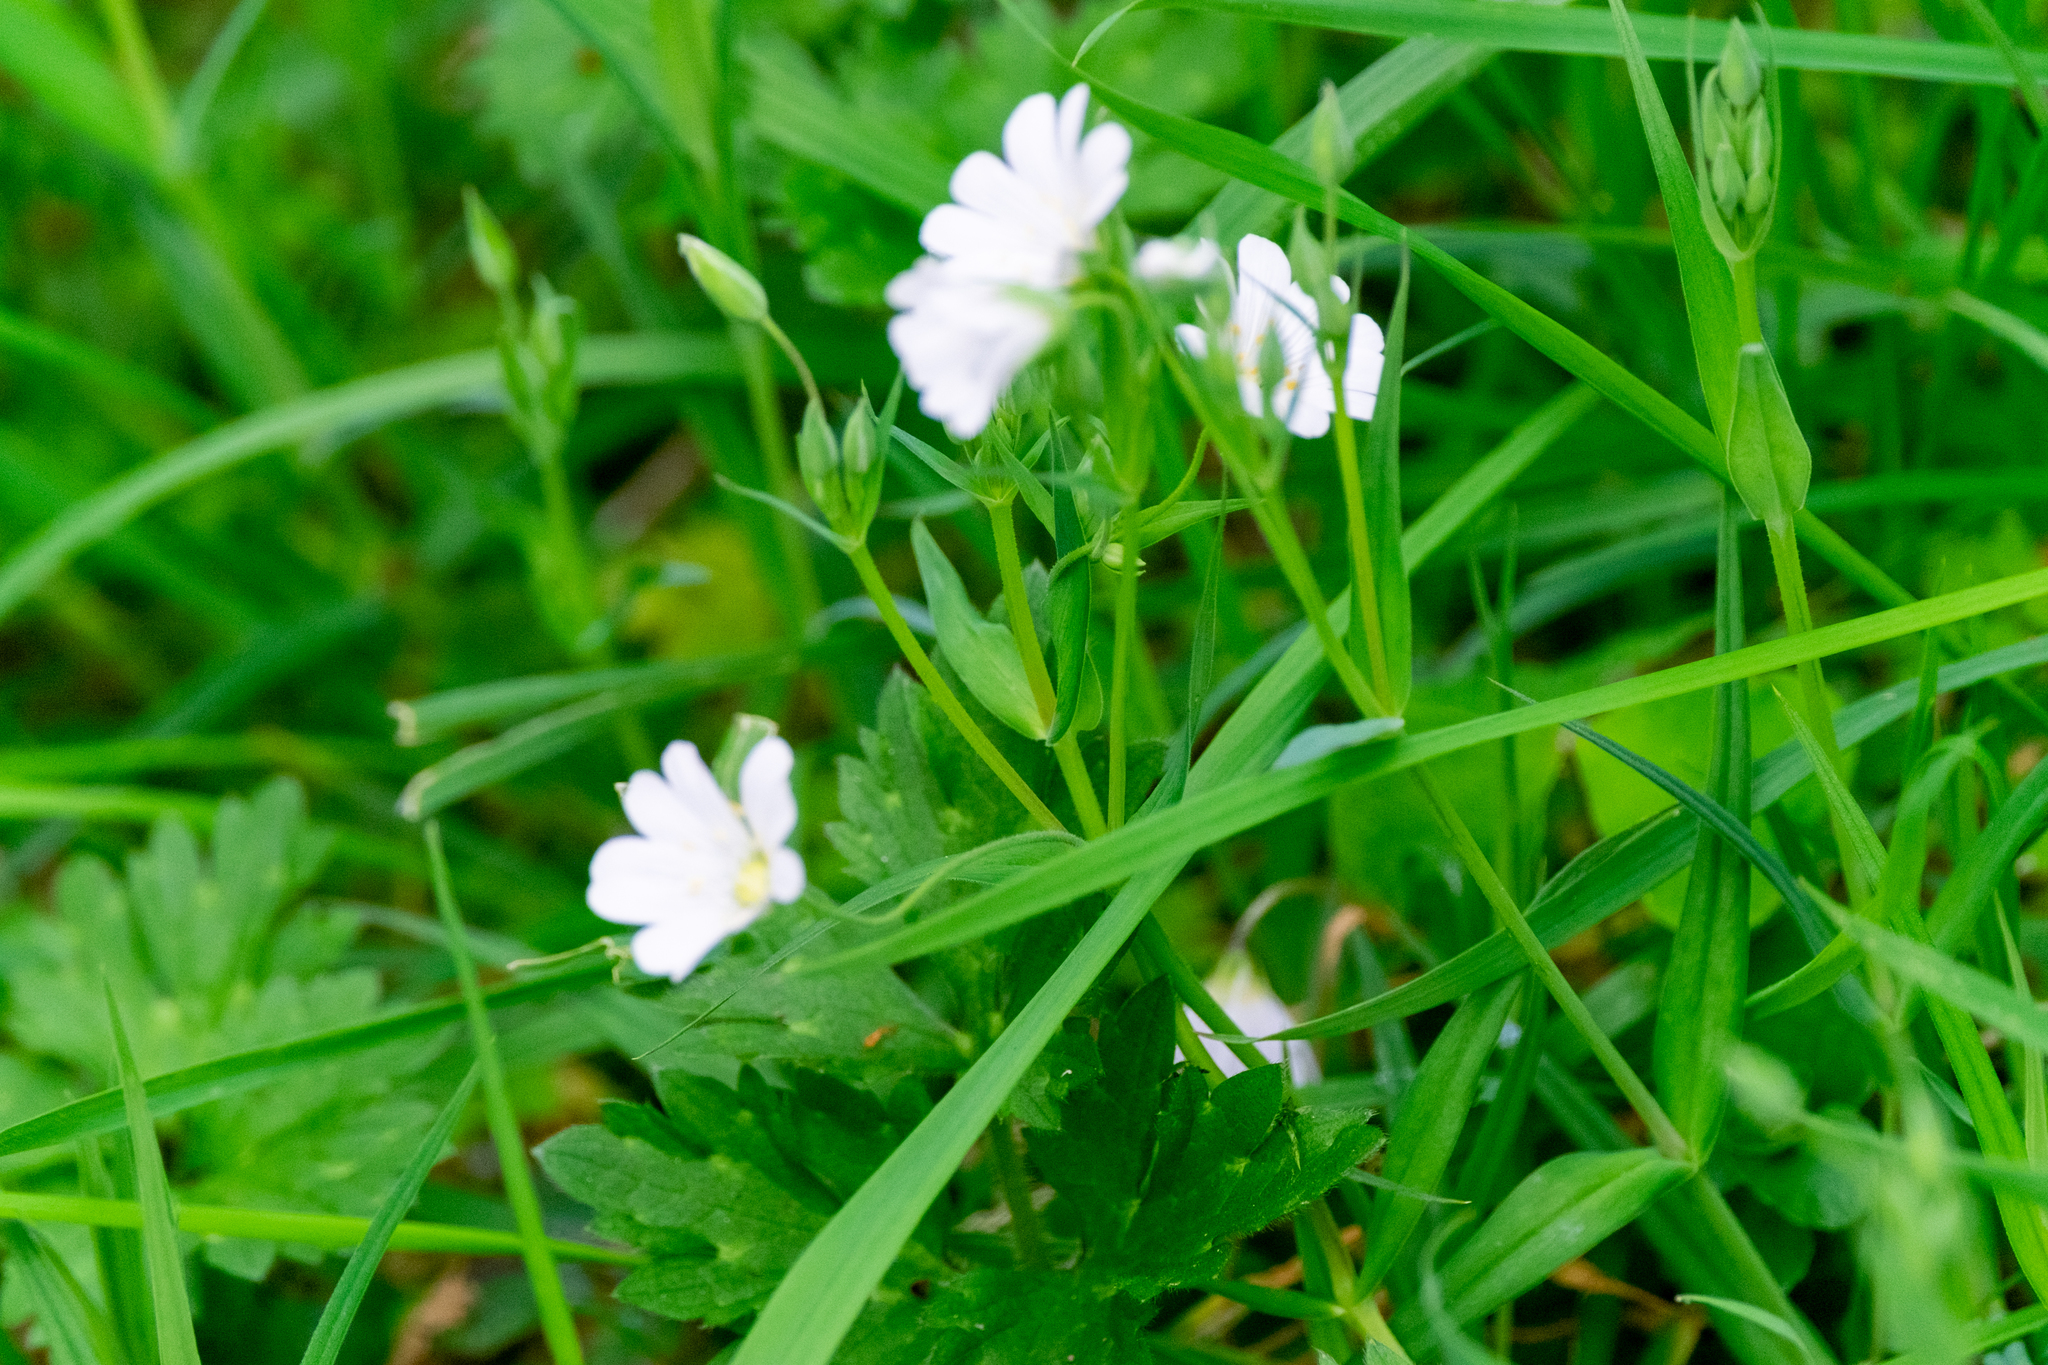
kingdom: Plantae
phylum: Tracheophyta
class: Magnoliopsida
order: Caryophyllales
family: Caryophyllaceae
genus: Rabelera
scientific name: Rabelera holostea
